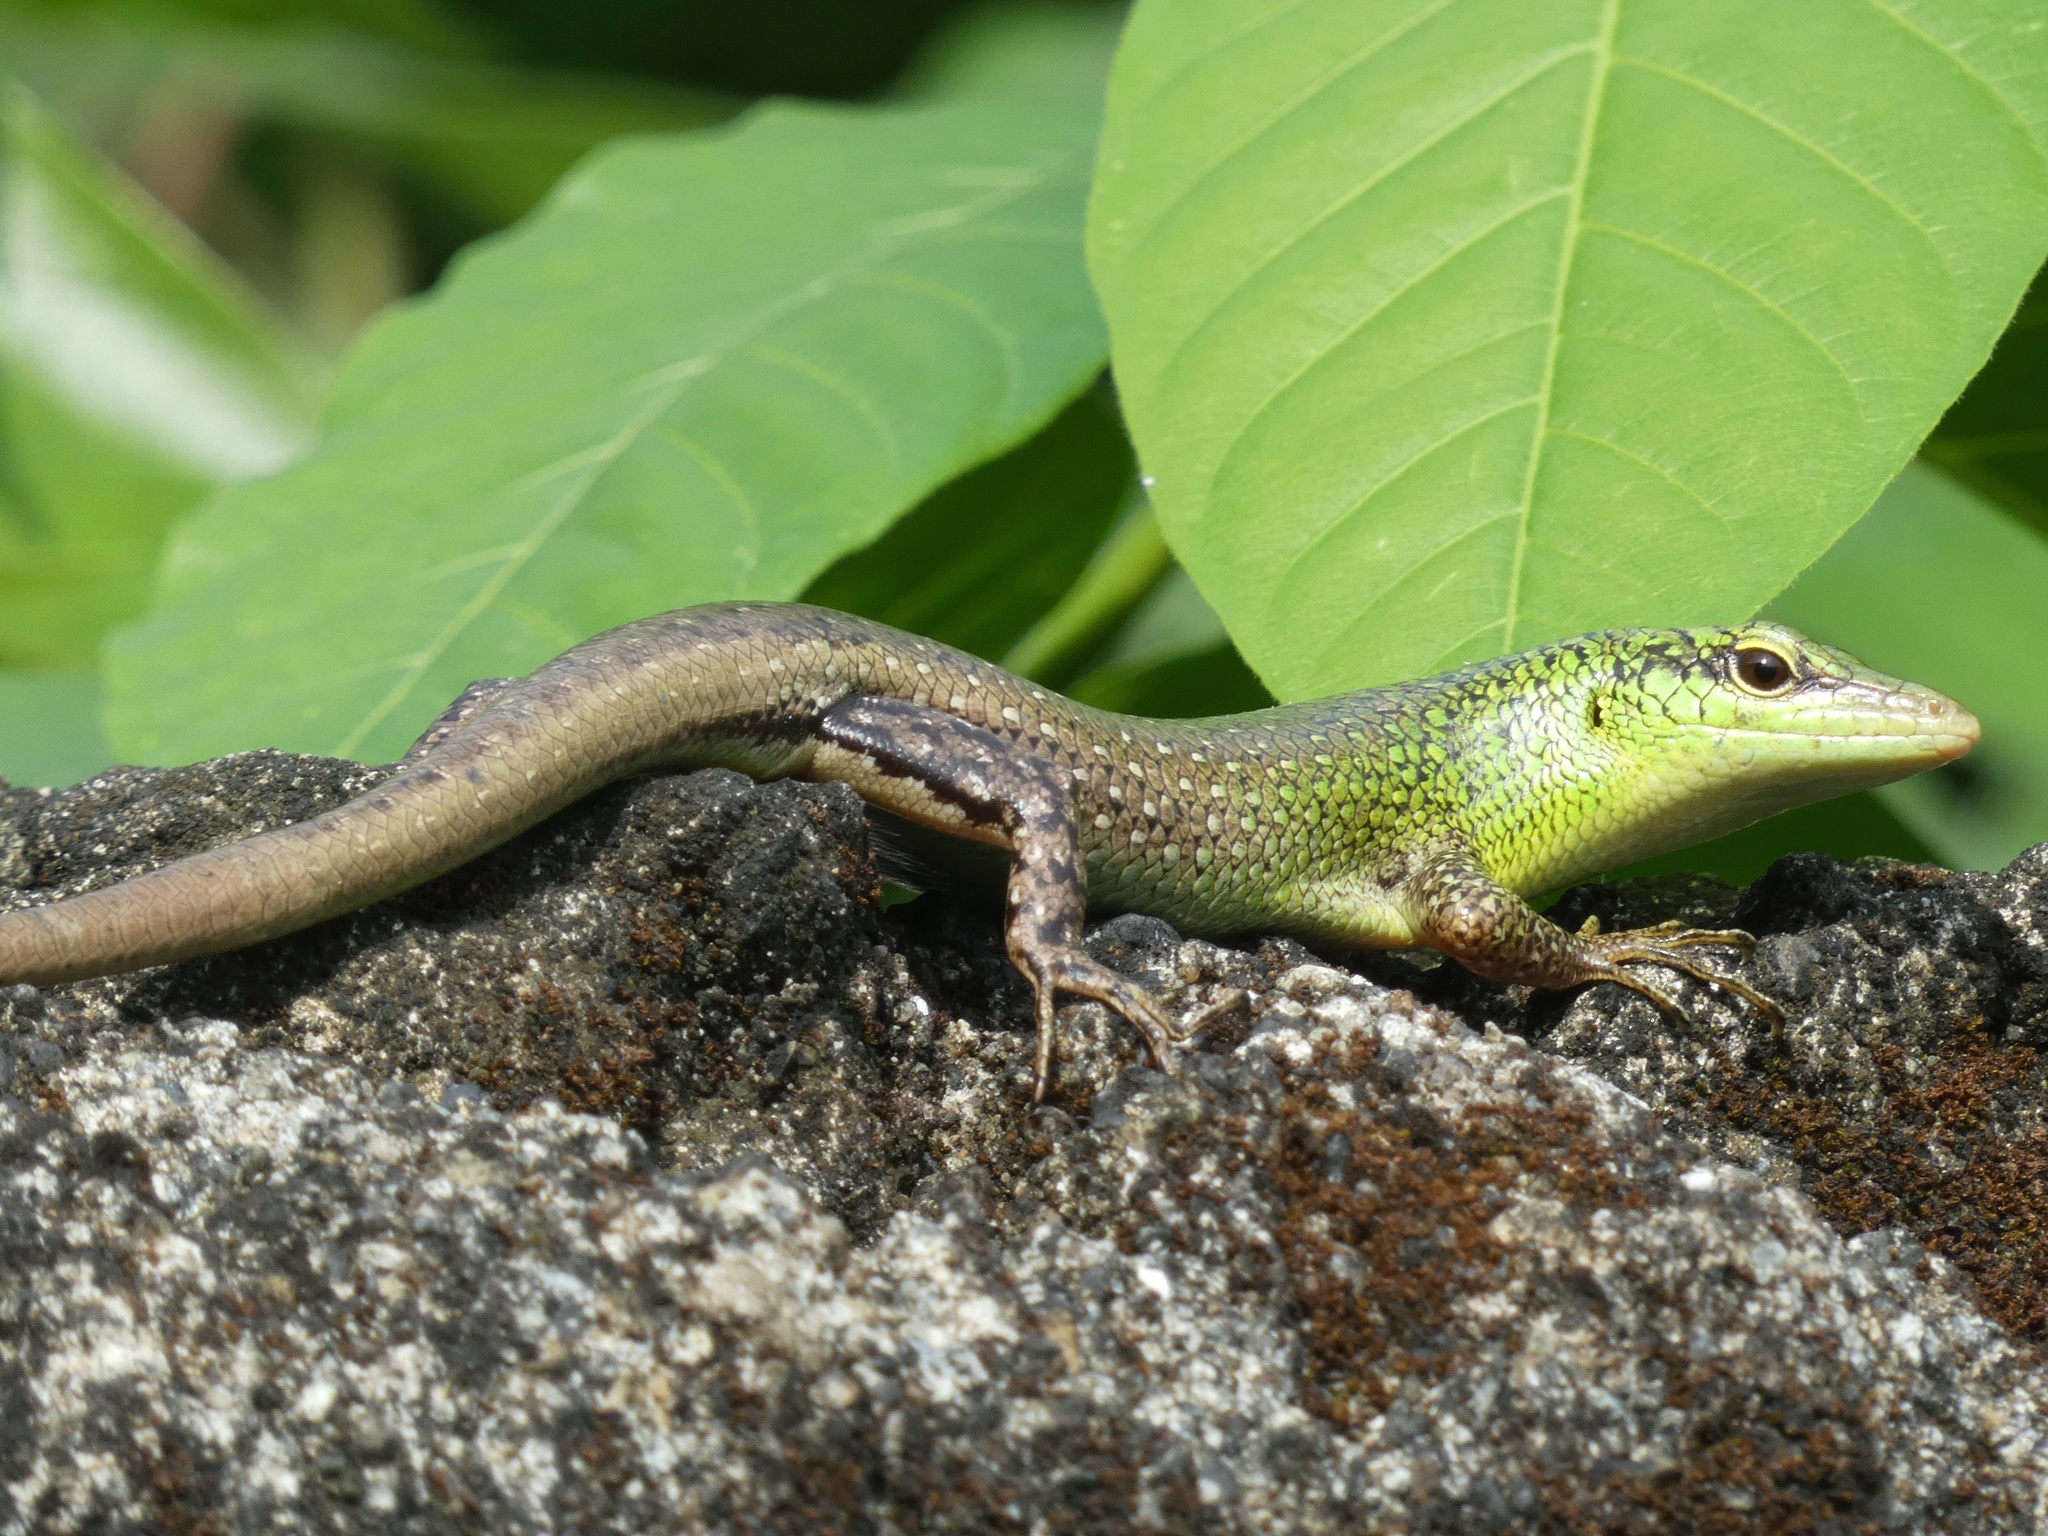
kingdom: Animalia
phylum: Chordata
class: Squamata
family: Scincidae
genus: Lamprolepis
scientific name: Lamprolepis smaragdina
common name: Emerald skink
